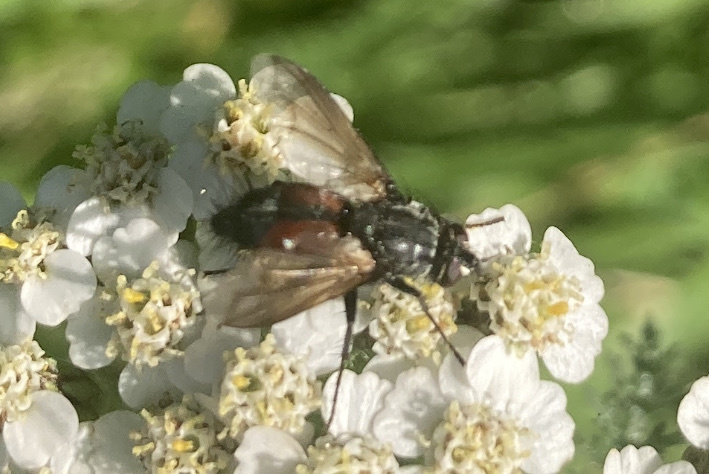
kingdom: Animalia
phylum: Arthropoda
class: Insecta
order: Diptera
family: Tachinidae
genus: Eriothrix
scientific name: Eriothrix rufomaculatus
